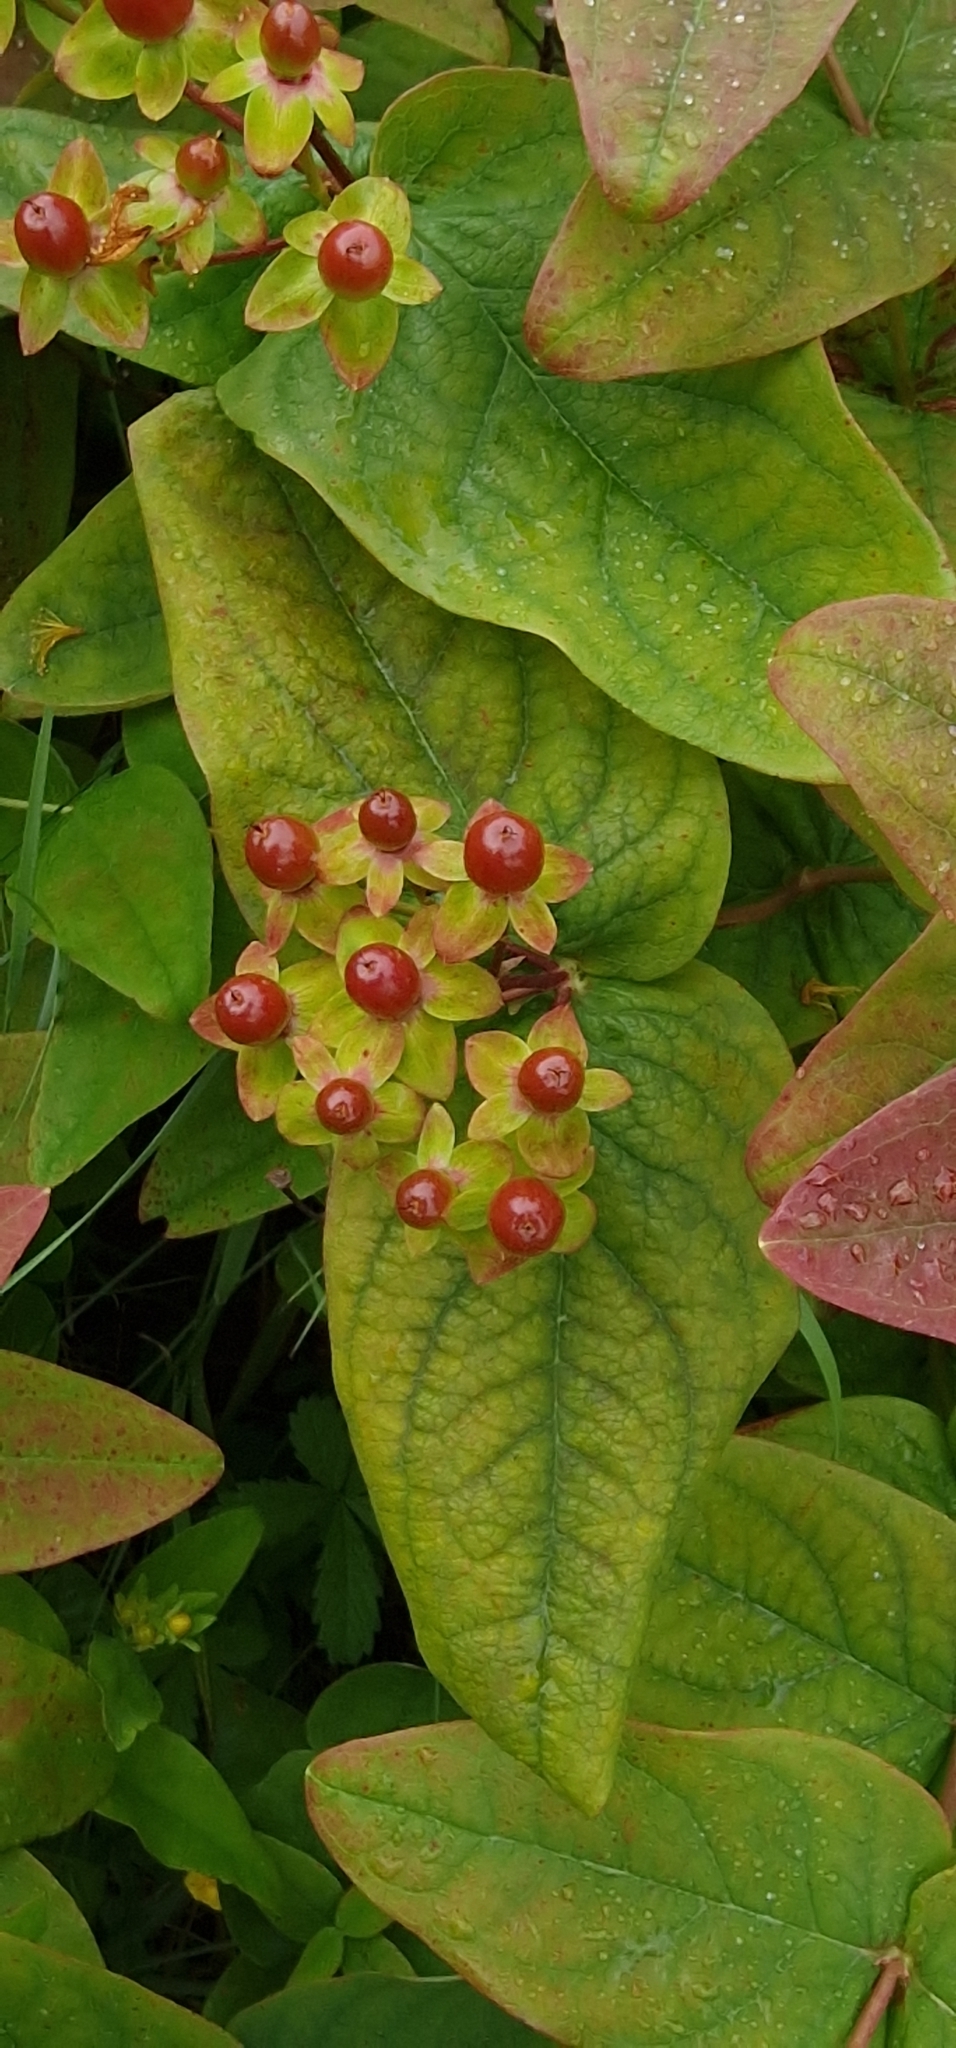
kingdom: Plantae
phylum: Tracheophyta
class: Magnoliopsida
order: Malpighiales
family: Hypericaceae
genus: Hypericum
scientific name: Hypericum androsaemum
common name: Sweet-amber
